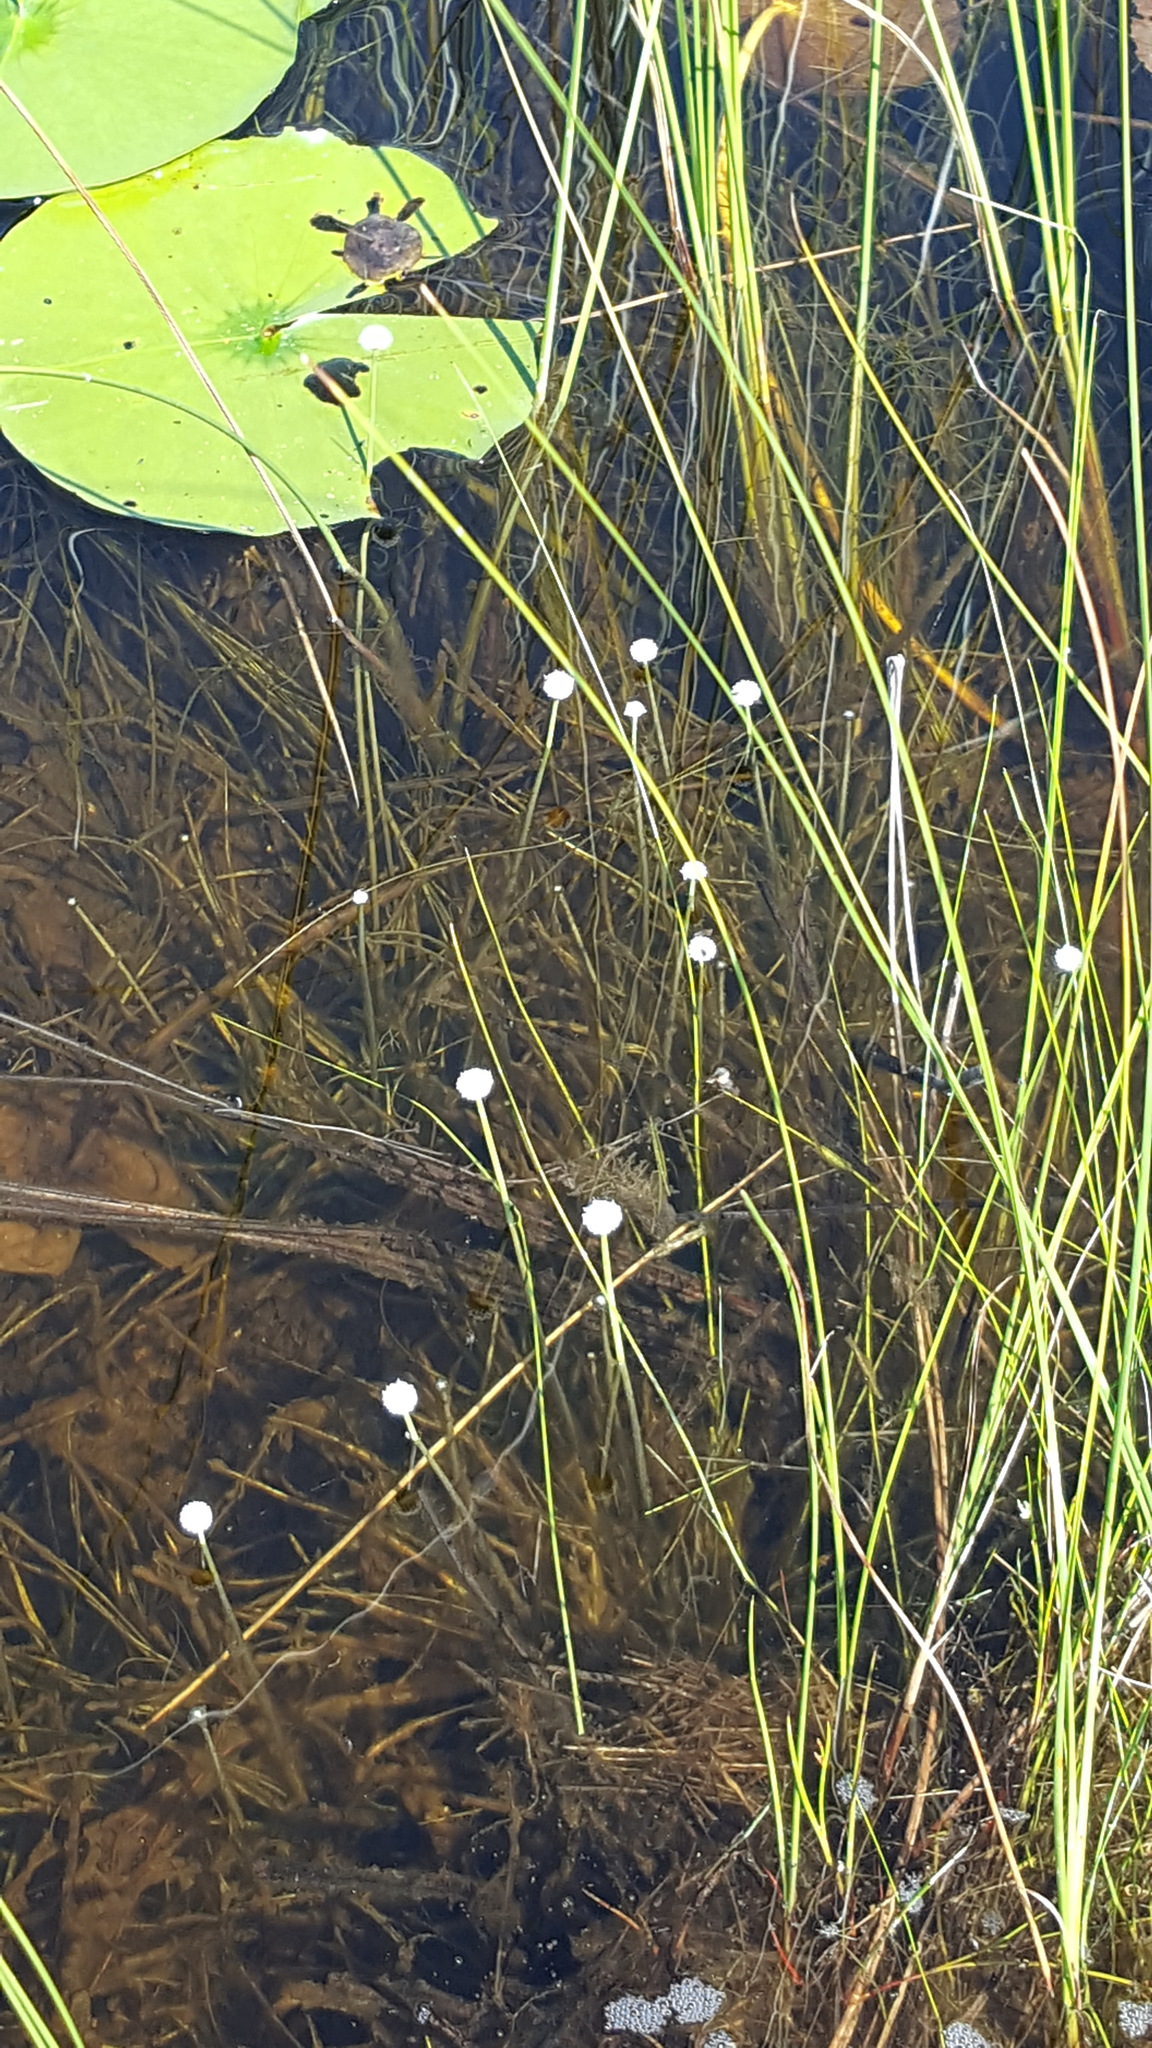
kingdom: Plantae
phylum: Tracheophyta
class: Liliopsida
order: Poales
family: Eriocaulaceae
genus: Eriocaulon
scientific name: Eriocaulon aquaticum
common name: Pipewort
